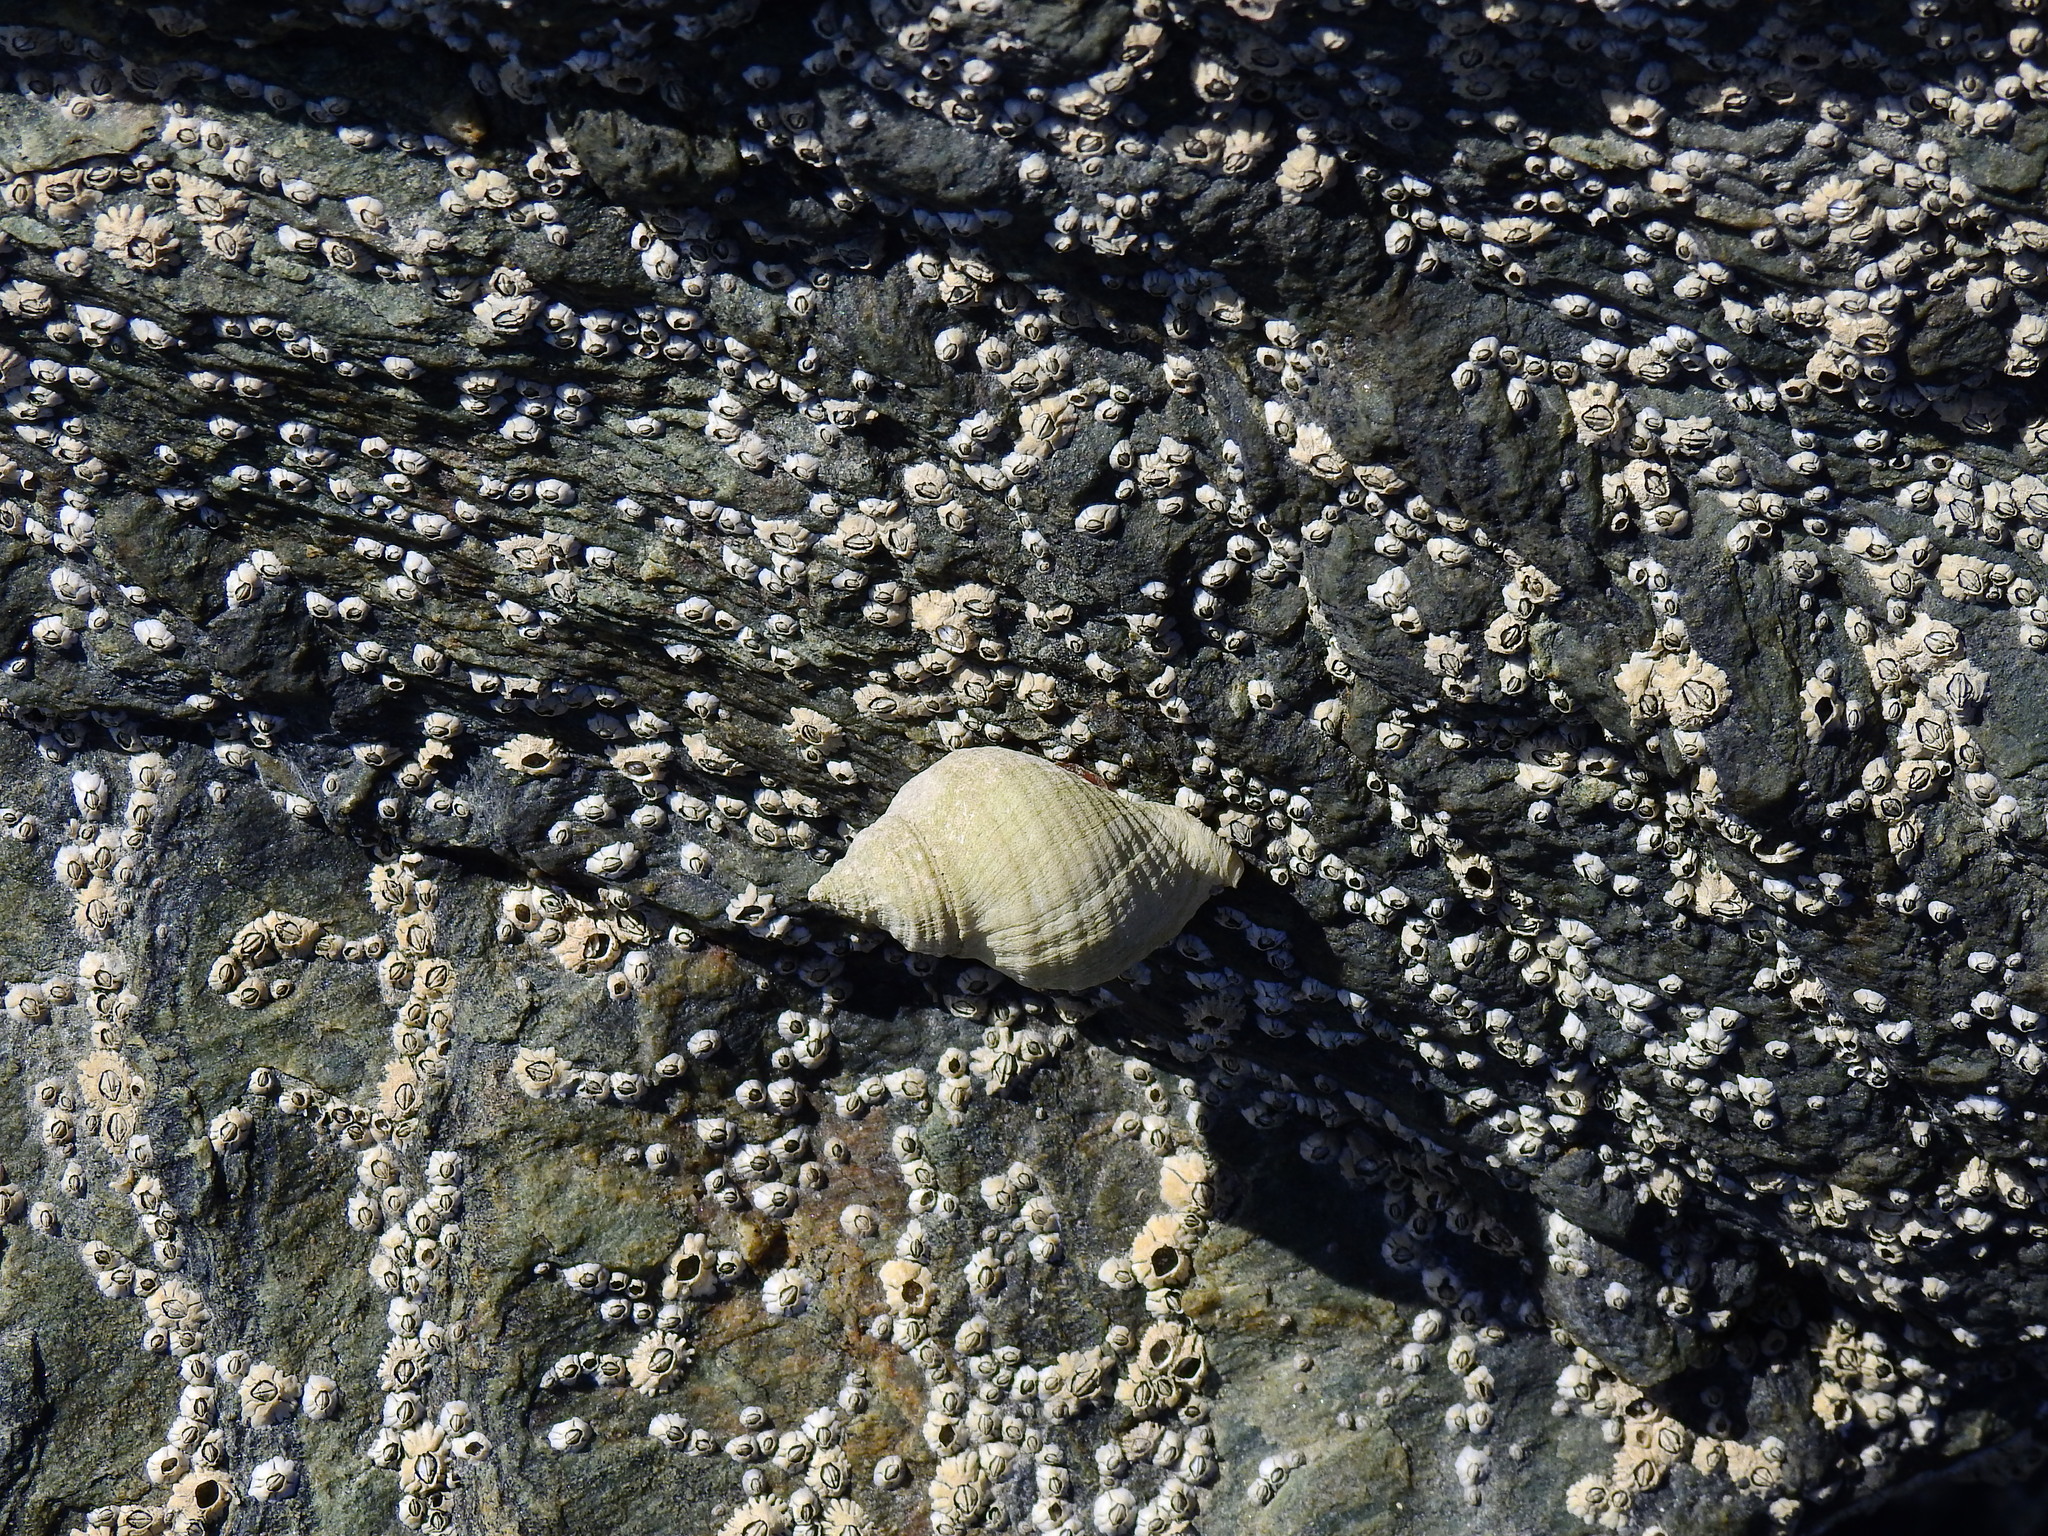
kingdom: Animalia
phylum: Mollusca
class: Gastropoda
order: Neogastropoda
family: Muricidae
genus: Nucella
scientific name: Nucella lapillus
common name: Dog whelk
